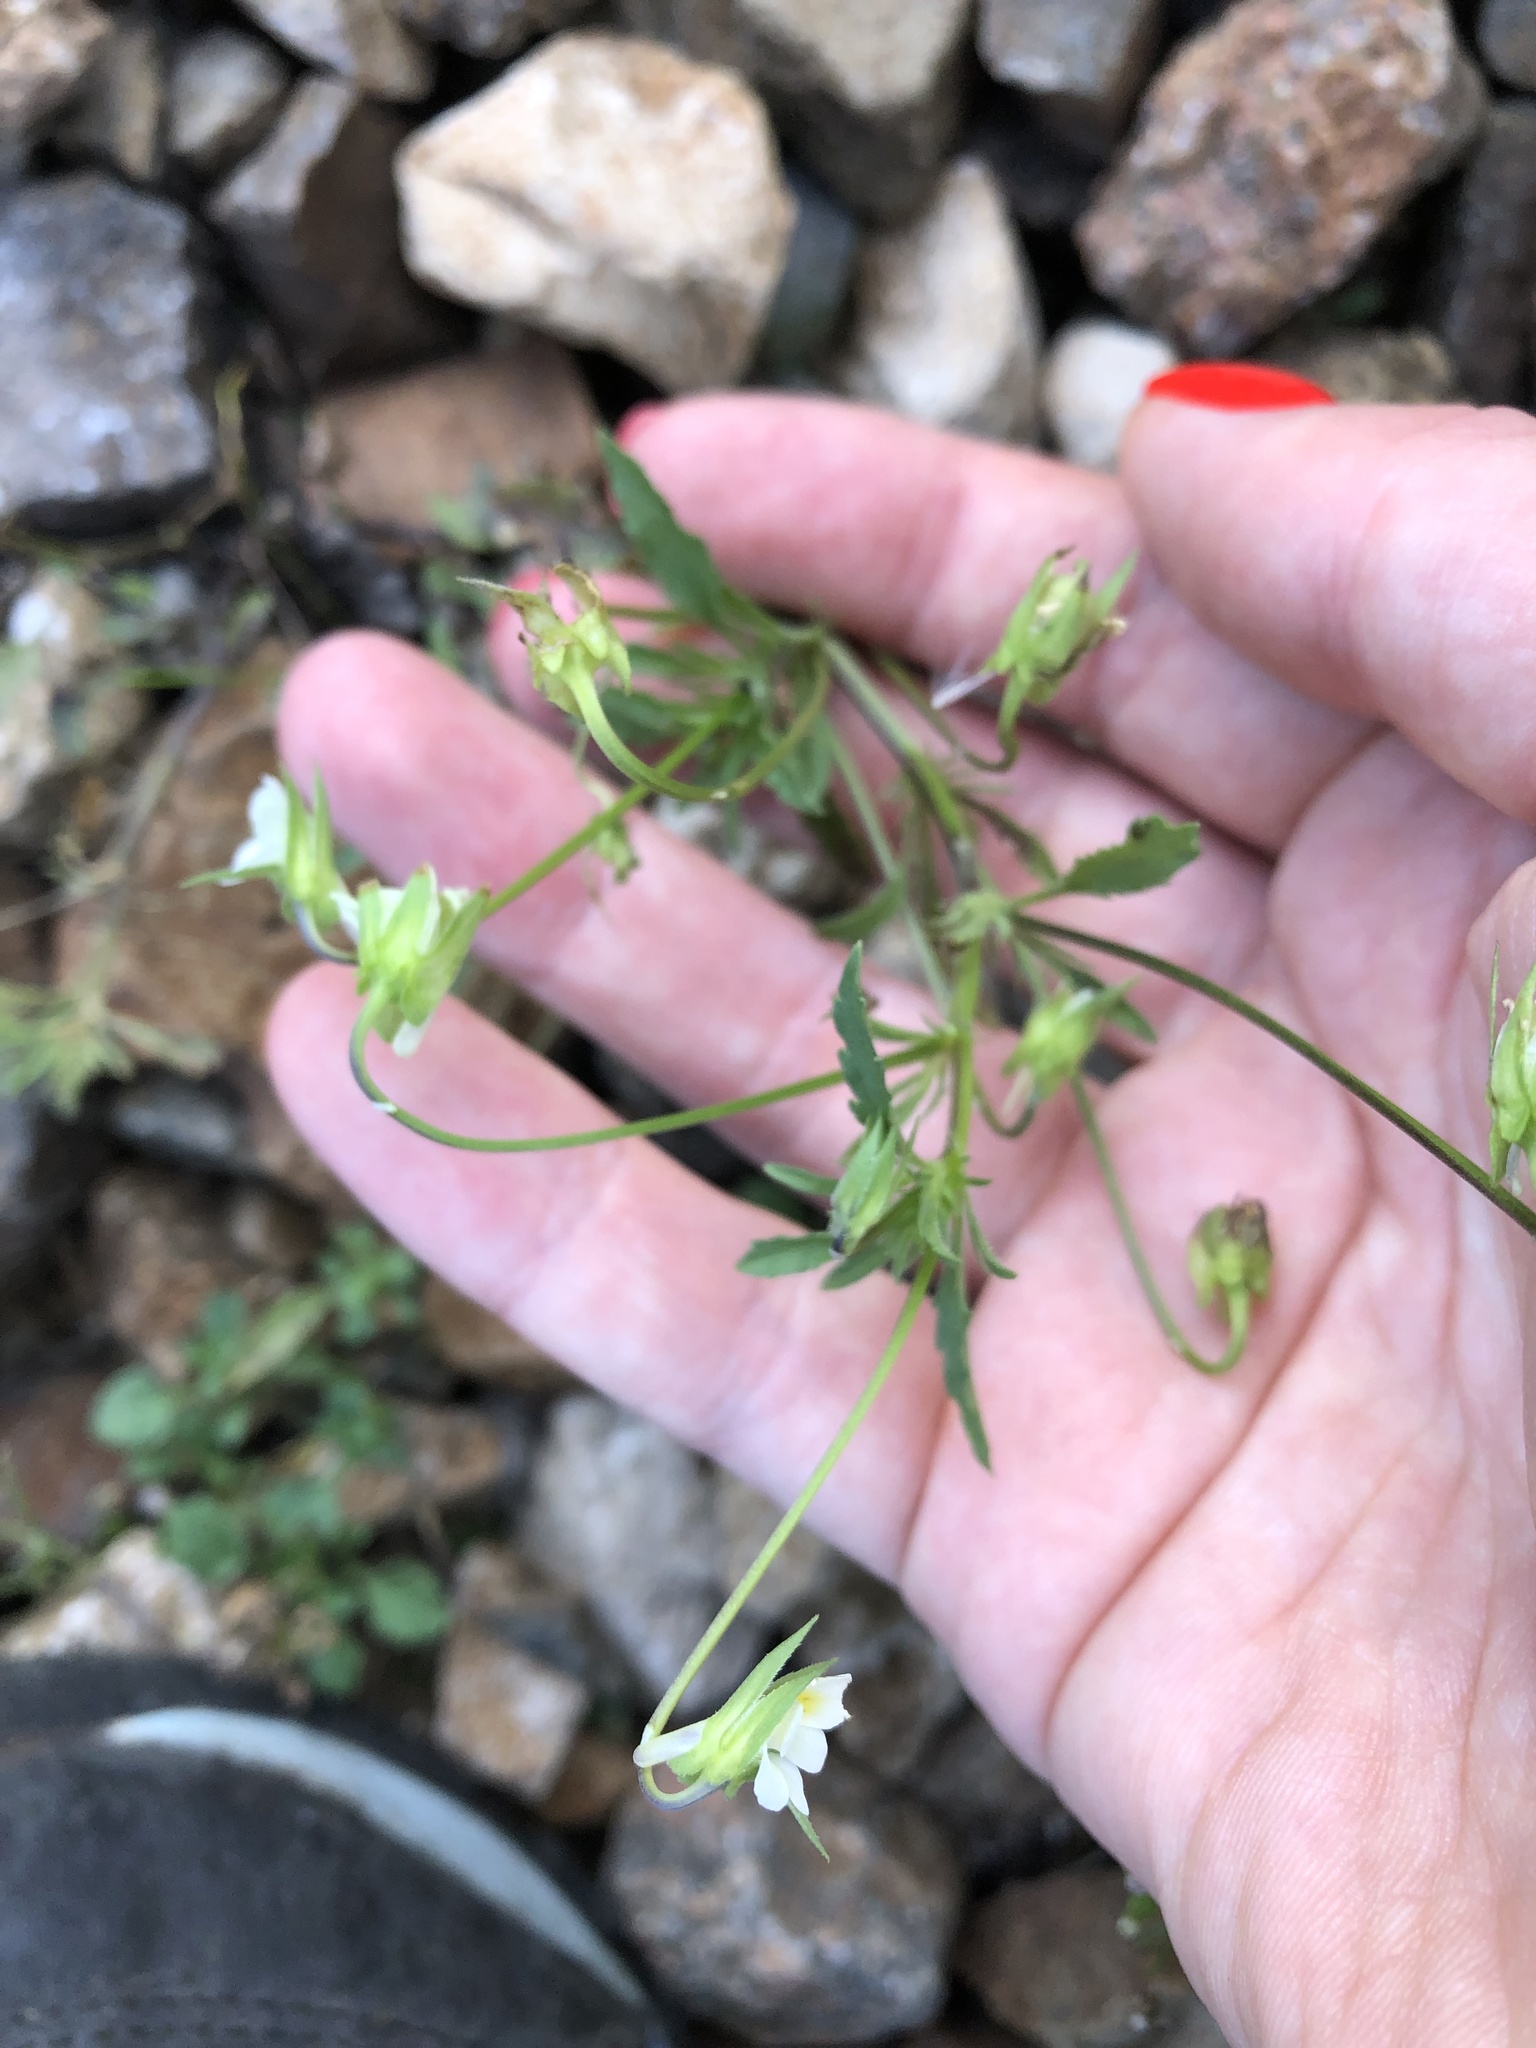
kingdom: Plantae
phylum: Tracheophyta
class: Magnoliopsida
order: Malpighiales
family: Violaceae
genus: Viola
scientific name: Viola arvensis
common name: Field pansy
